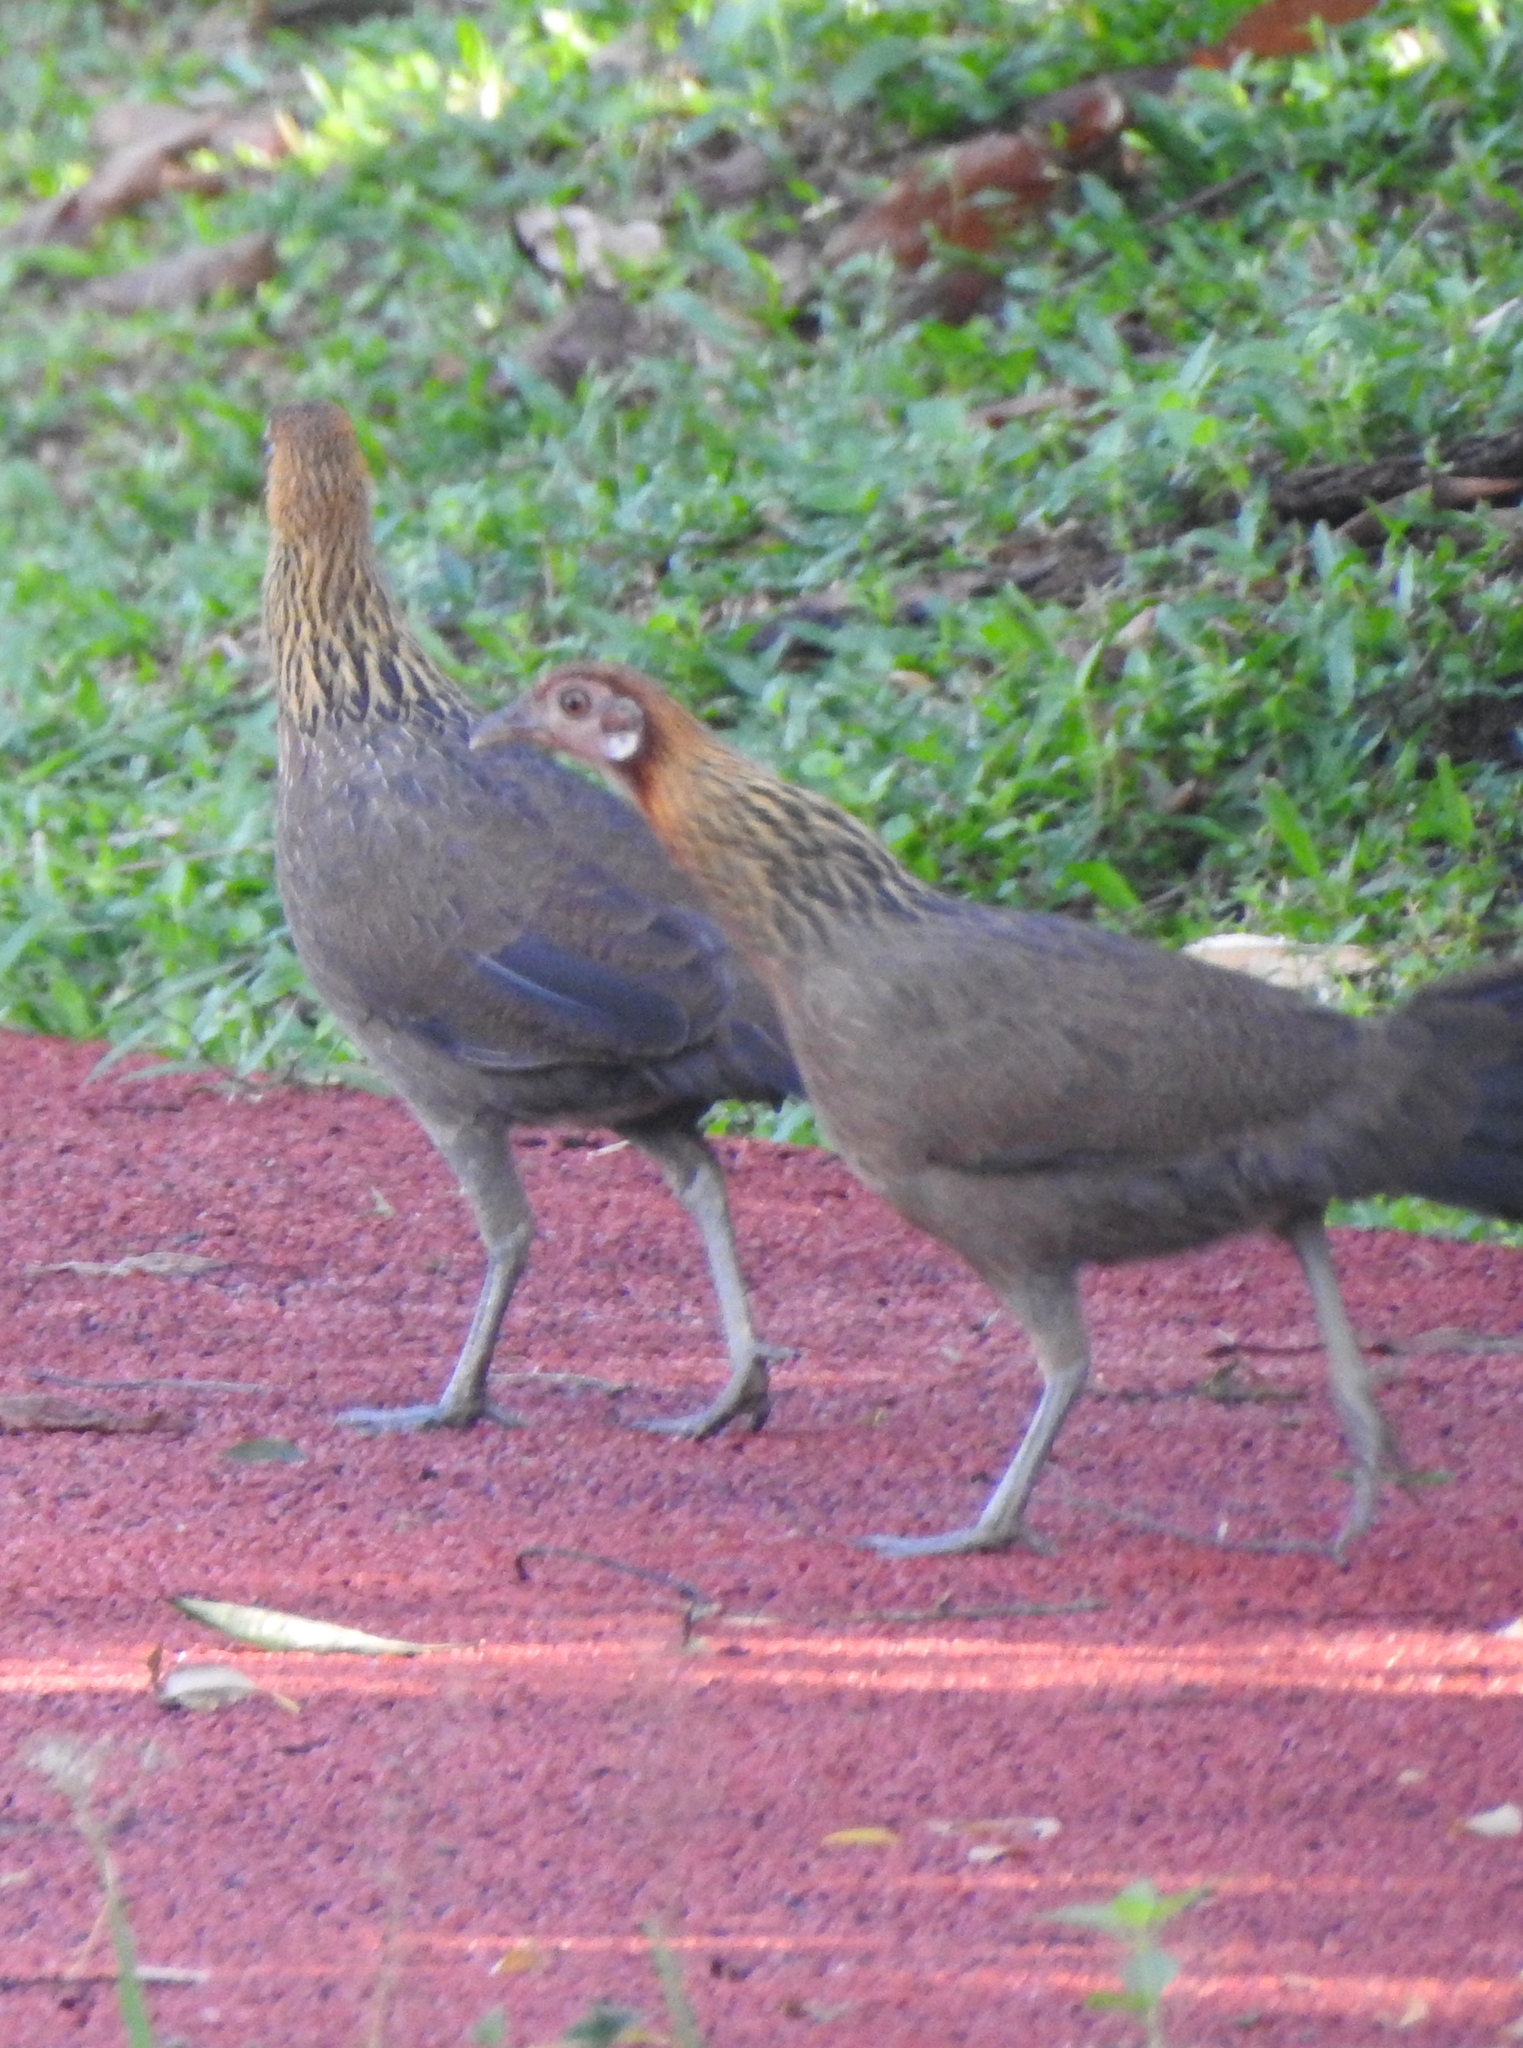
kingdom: Animalia
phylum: Chordata
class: Aves
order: Galliformes
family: Phasianidae
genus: Gallus
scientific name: Gallus gallus
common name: Red junglefowl
